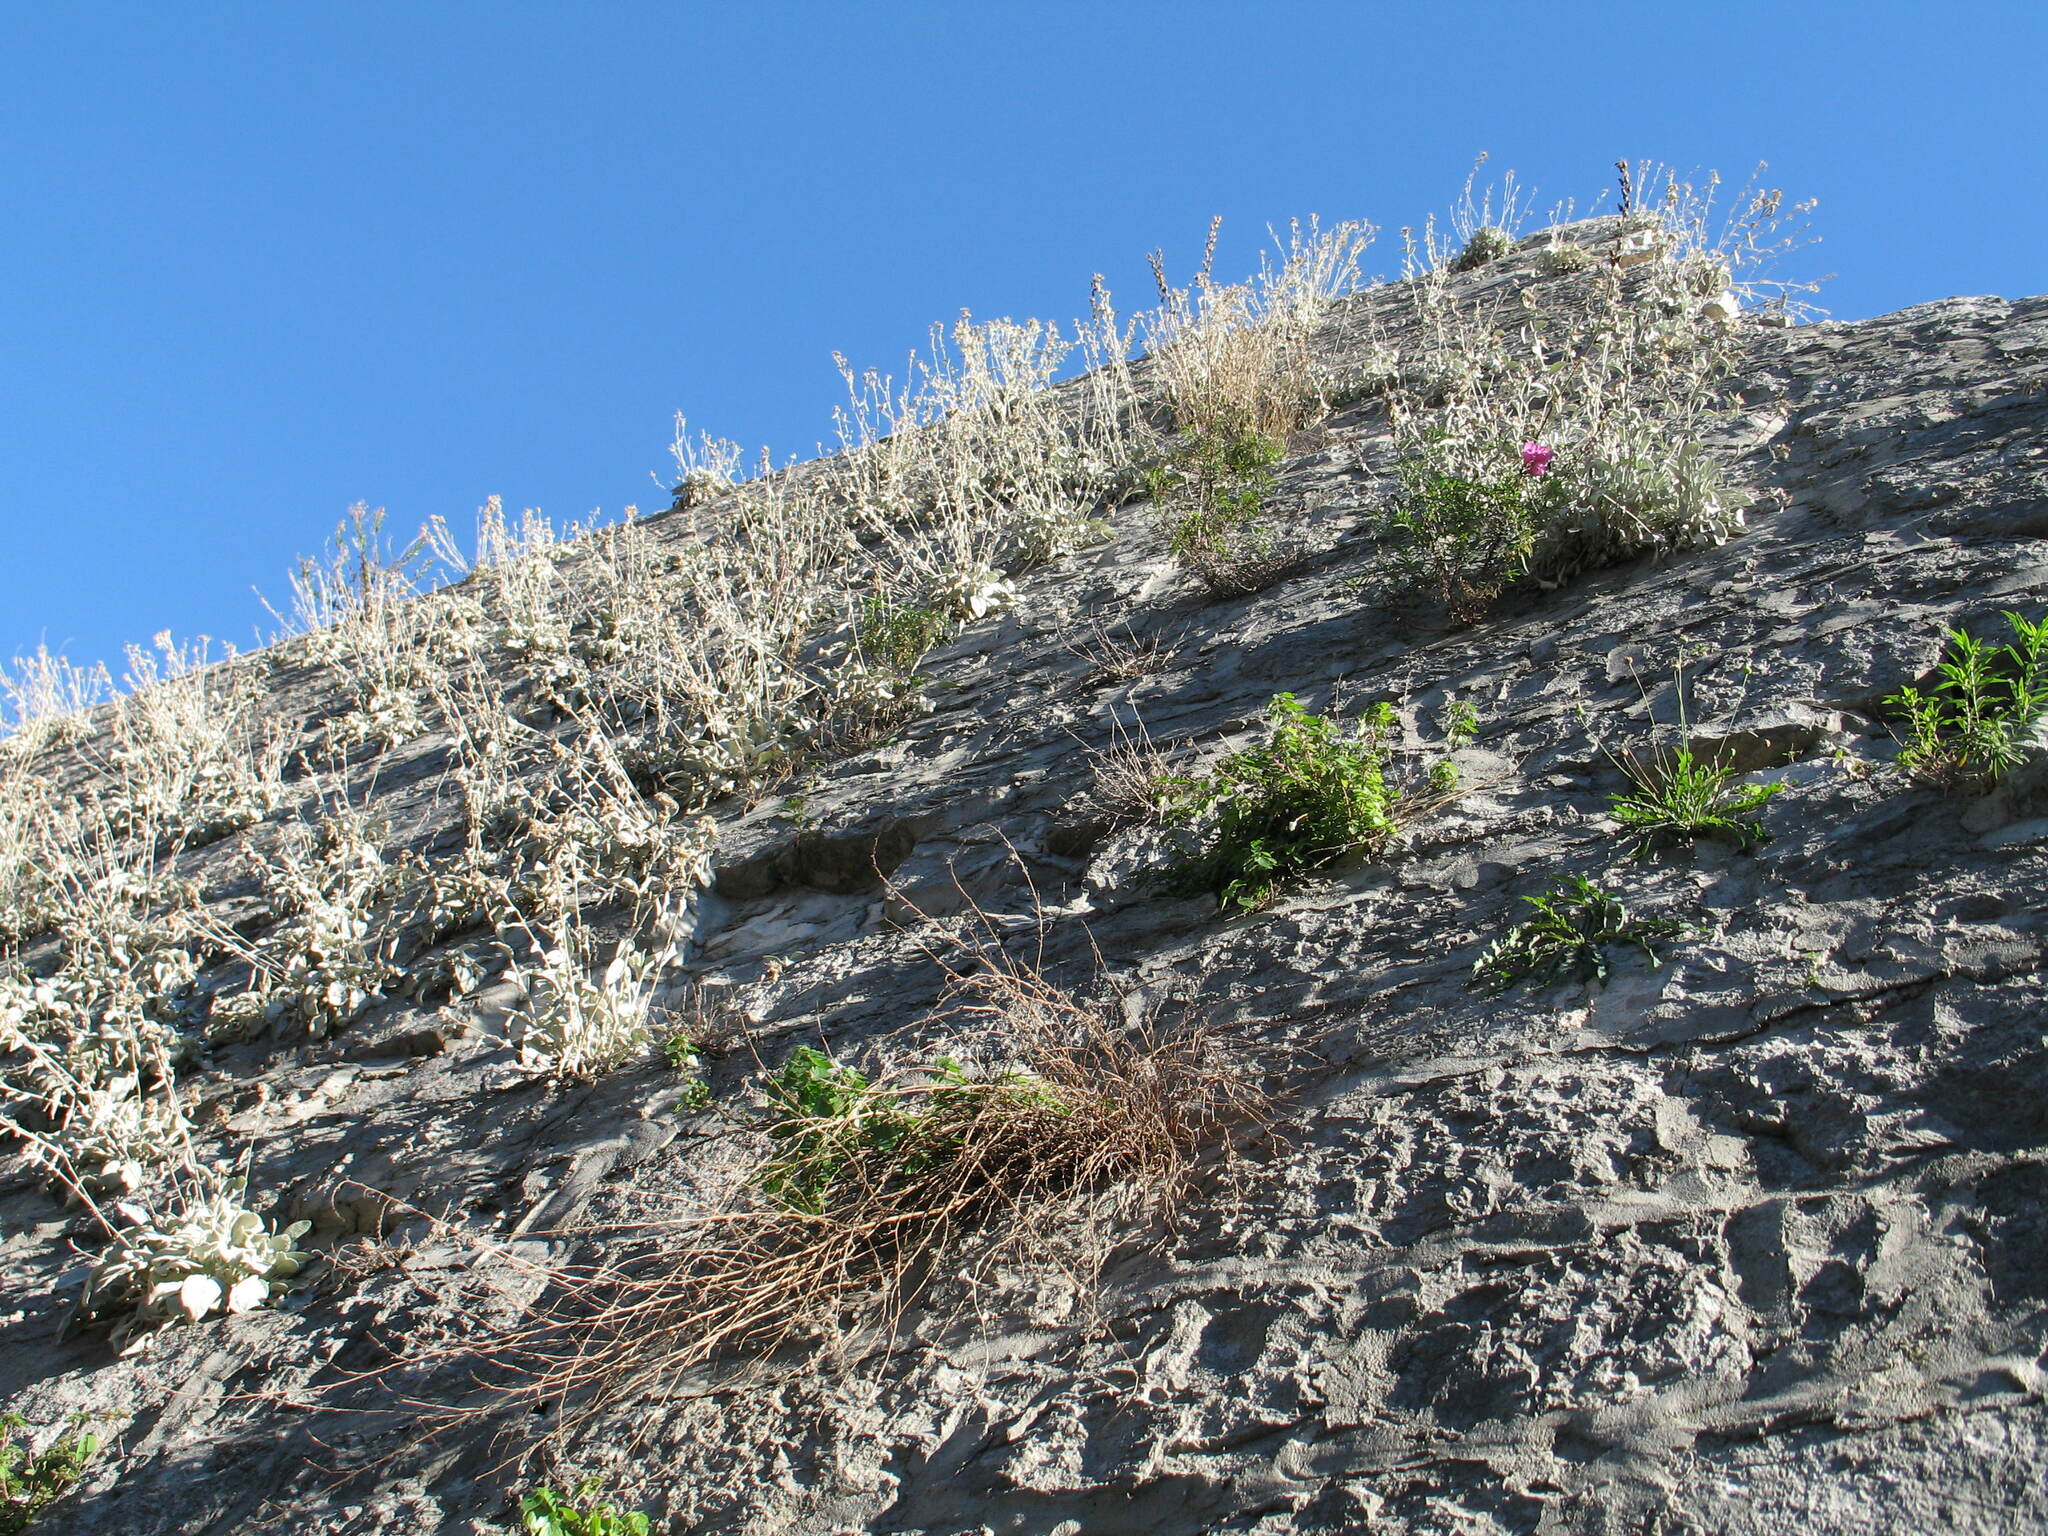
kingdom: Plantae
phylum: Tracheophyta
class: Magnoliopsida
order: Asterales
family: Asteraceae
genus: Pentanema
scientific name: Pentanema verbascifolium
